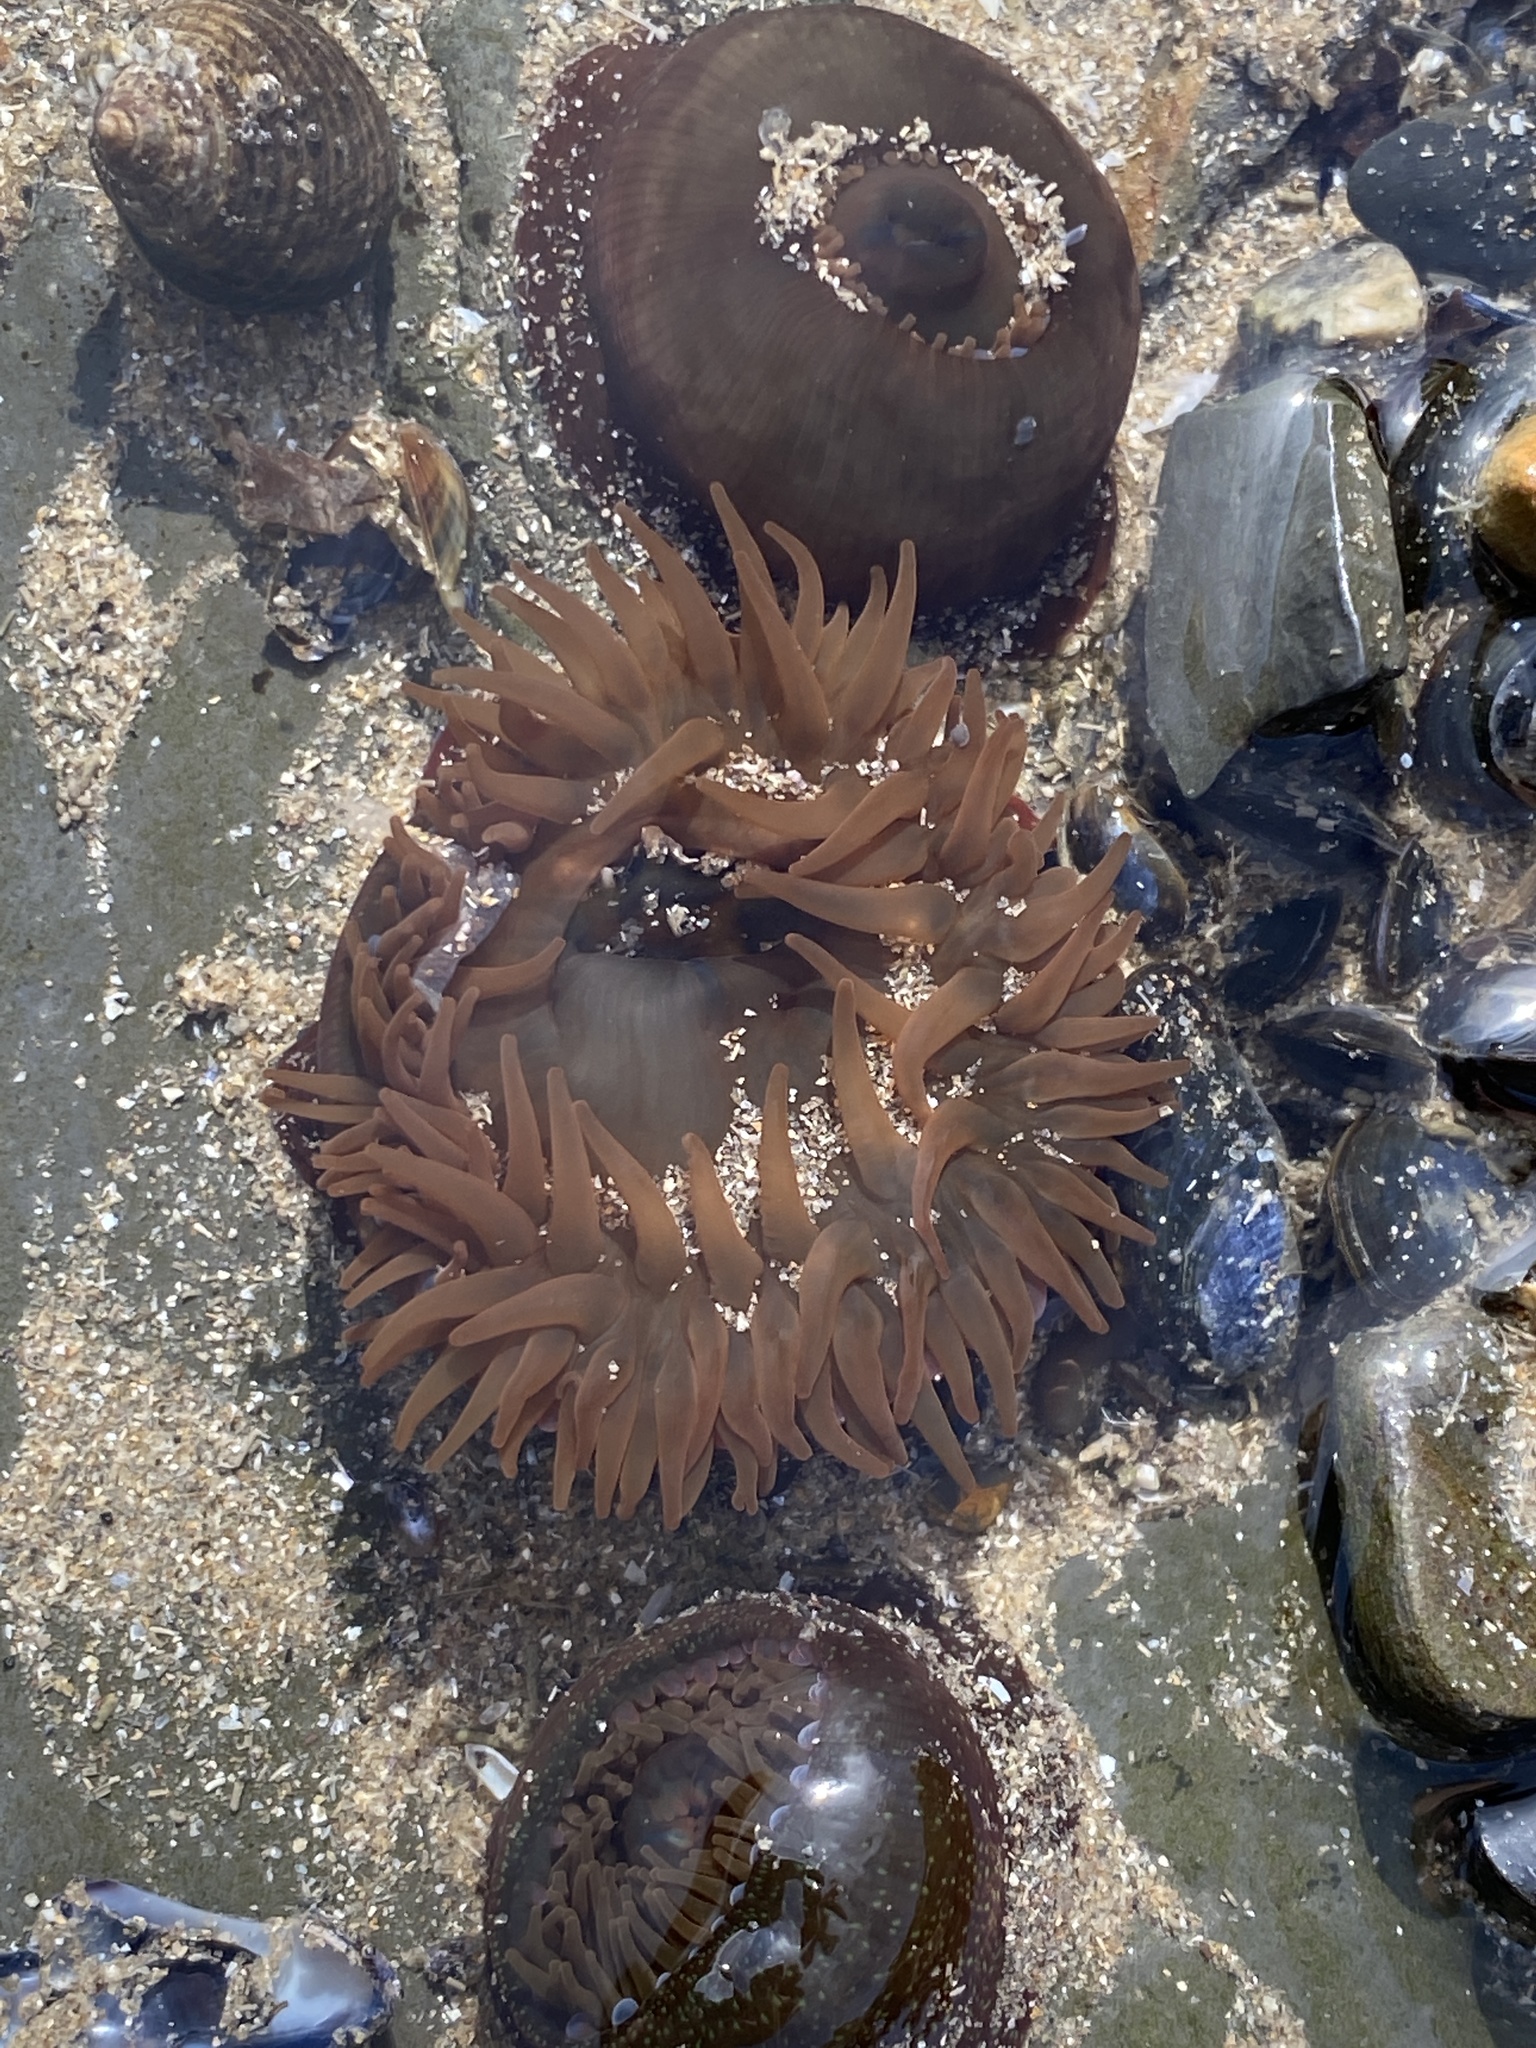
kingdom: Animalia
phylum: Cnidaria
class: Anthozoa
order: Actiniaria
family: Actiniidae
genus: Actinia
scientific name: Actinia equina
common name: Beadlet anemone
